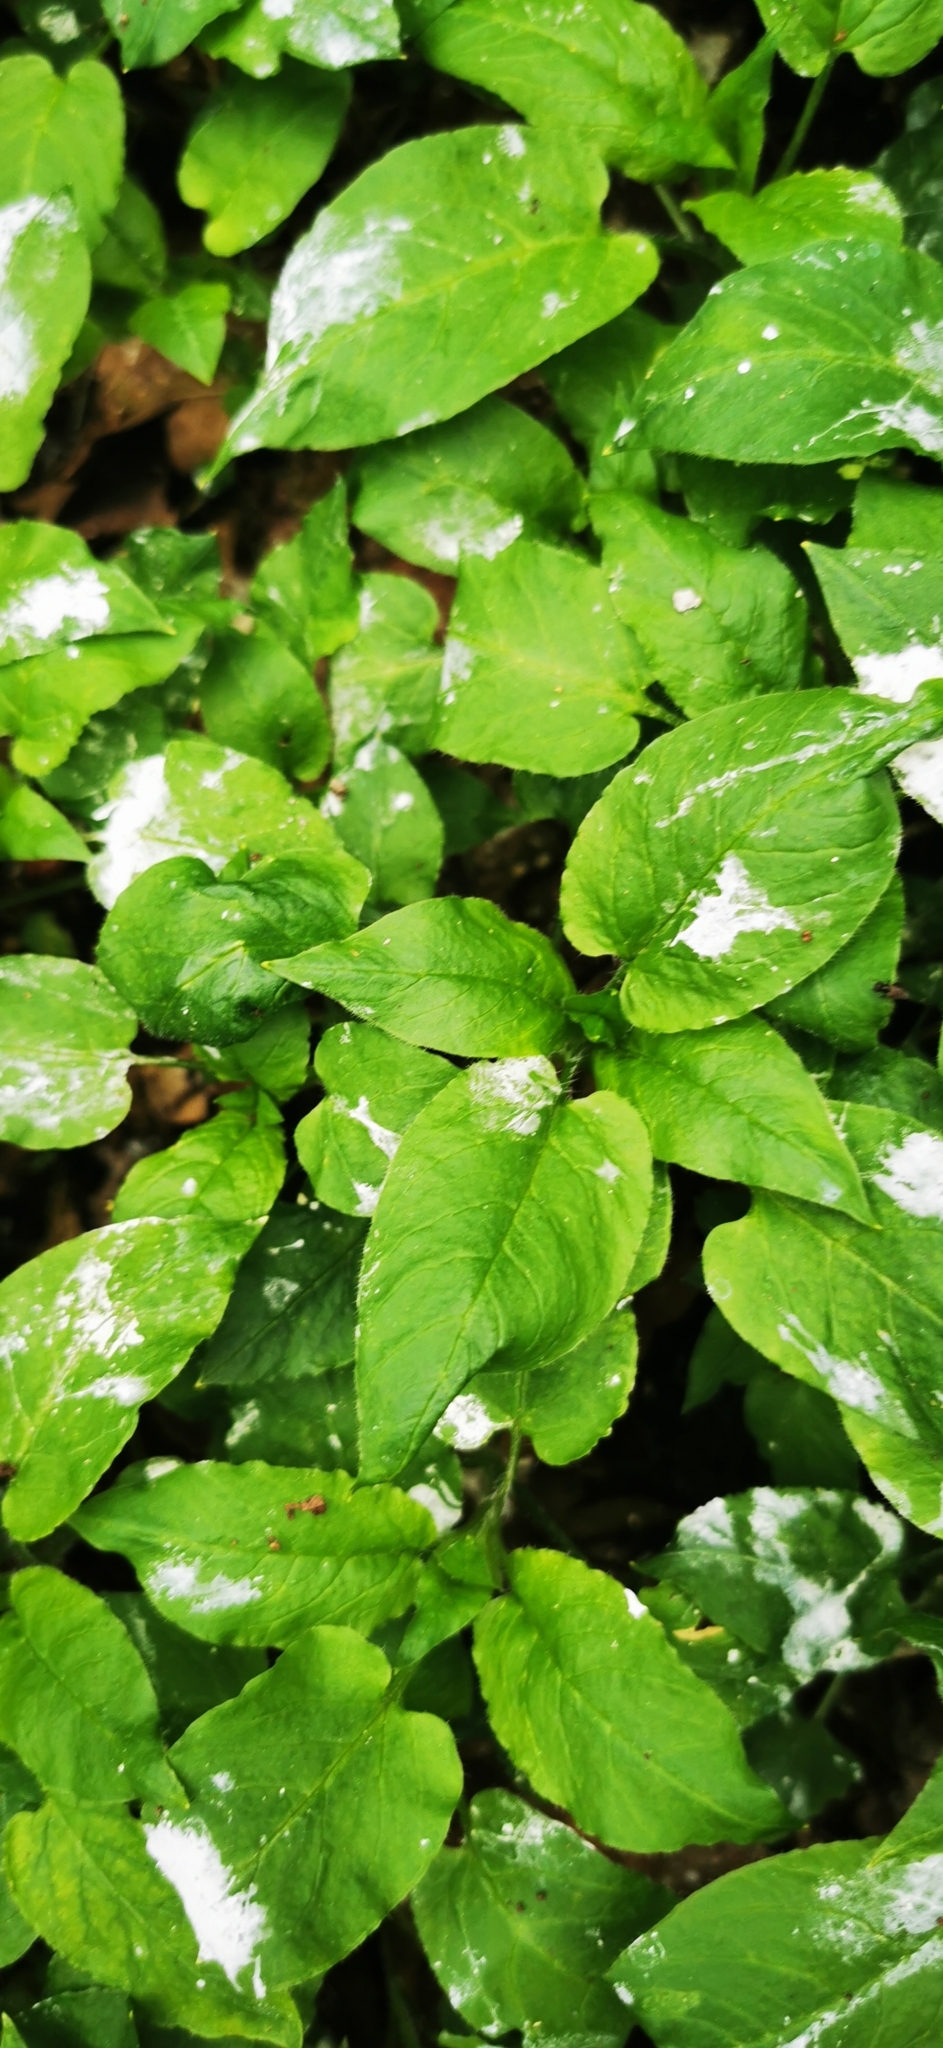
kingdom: Animalia
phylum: Chordata
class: Aves
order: Ciconiiformes
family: Ciconiidae
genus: Ciconia
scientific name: Ciconia nigra
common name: Black stork
